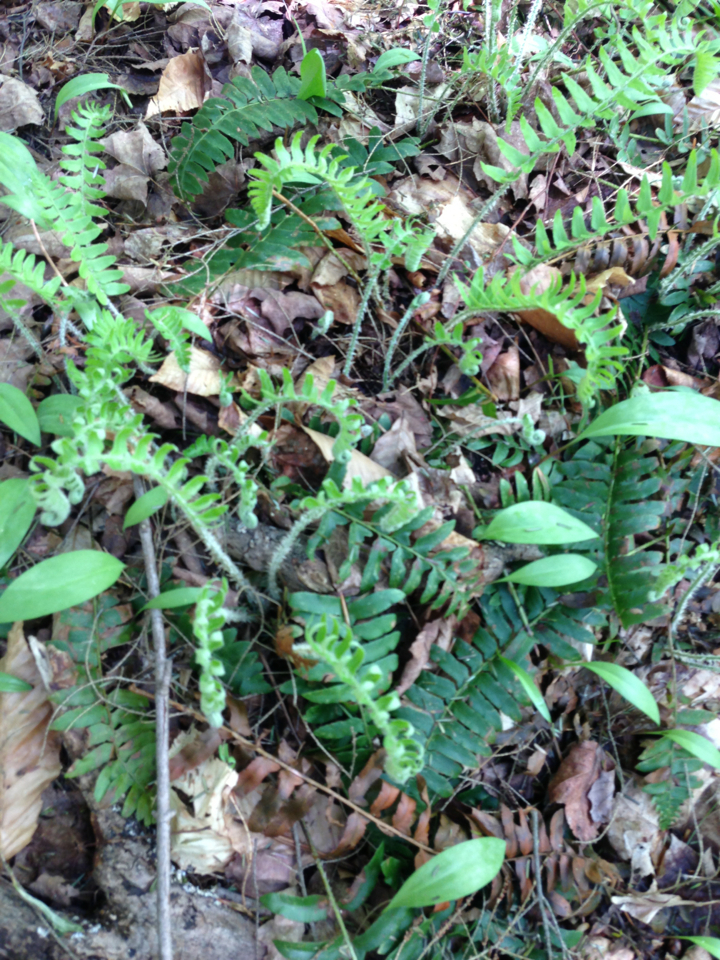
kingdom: Plantae
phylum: Tracheophyta
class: Polypodiopsida
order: Polypodiales
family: Dryopteridaceae
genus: Polystichum
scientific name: Polystichum acrostichoides
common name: Christmas fern
